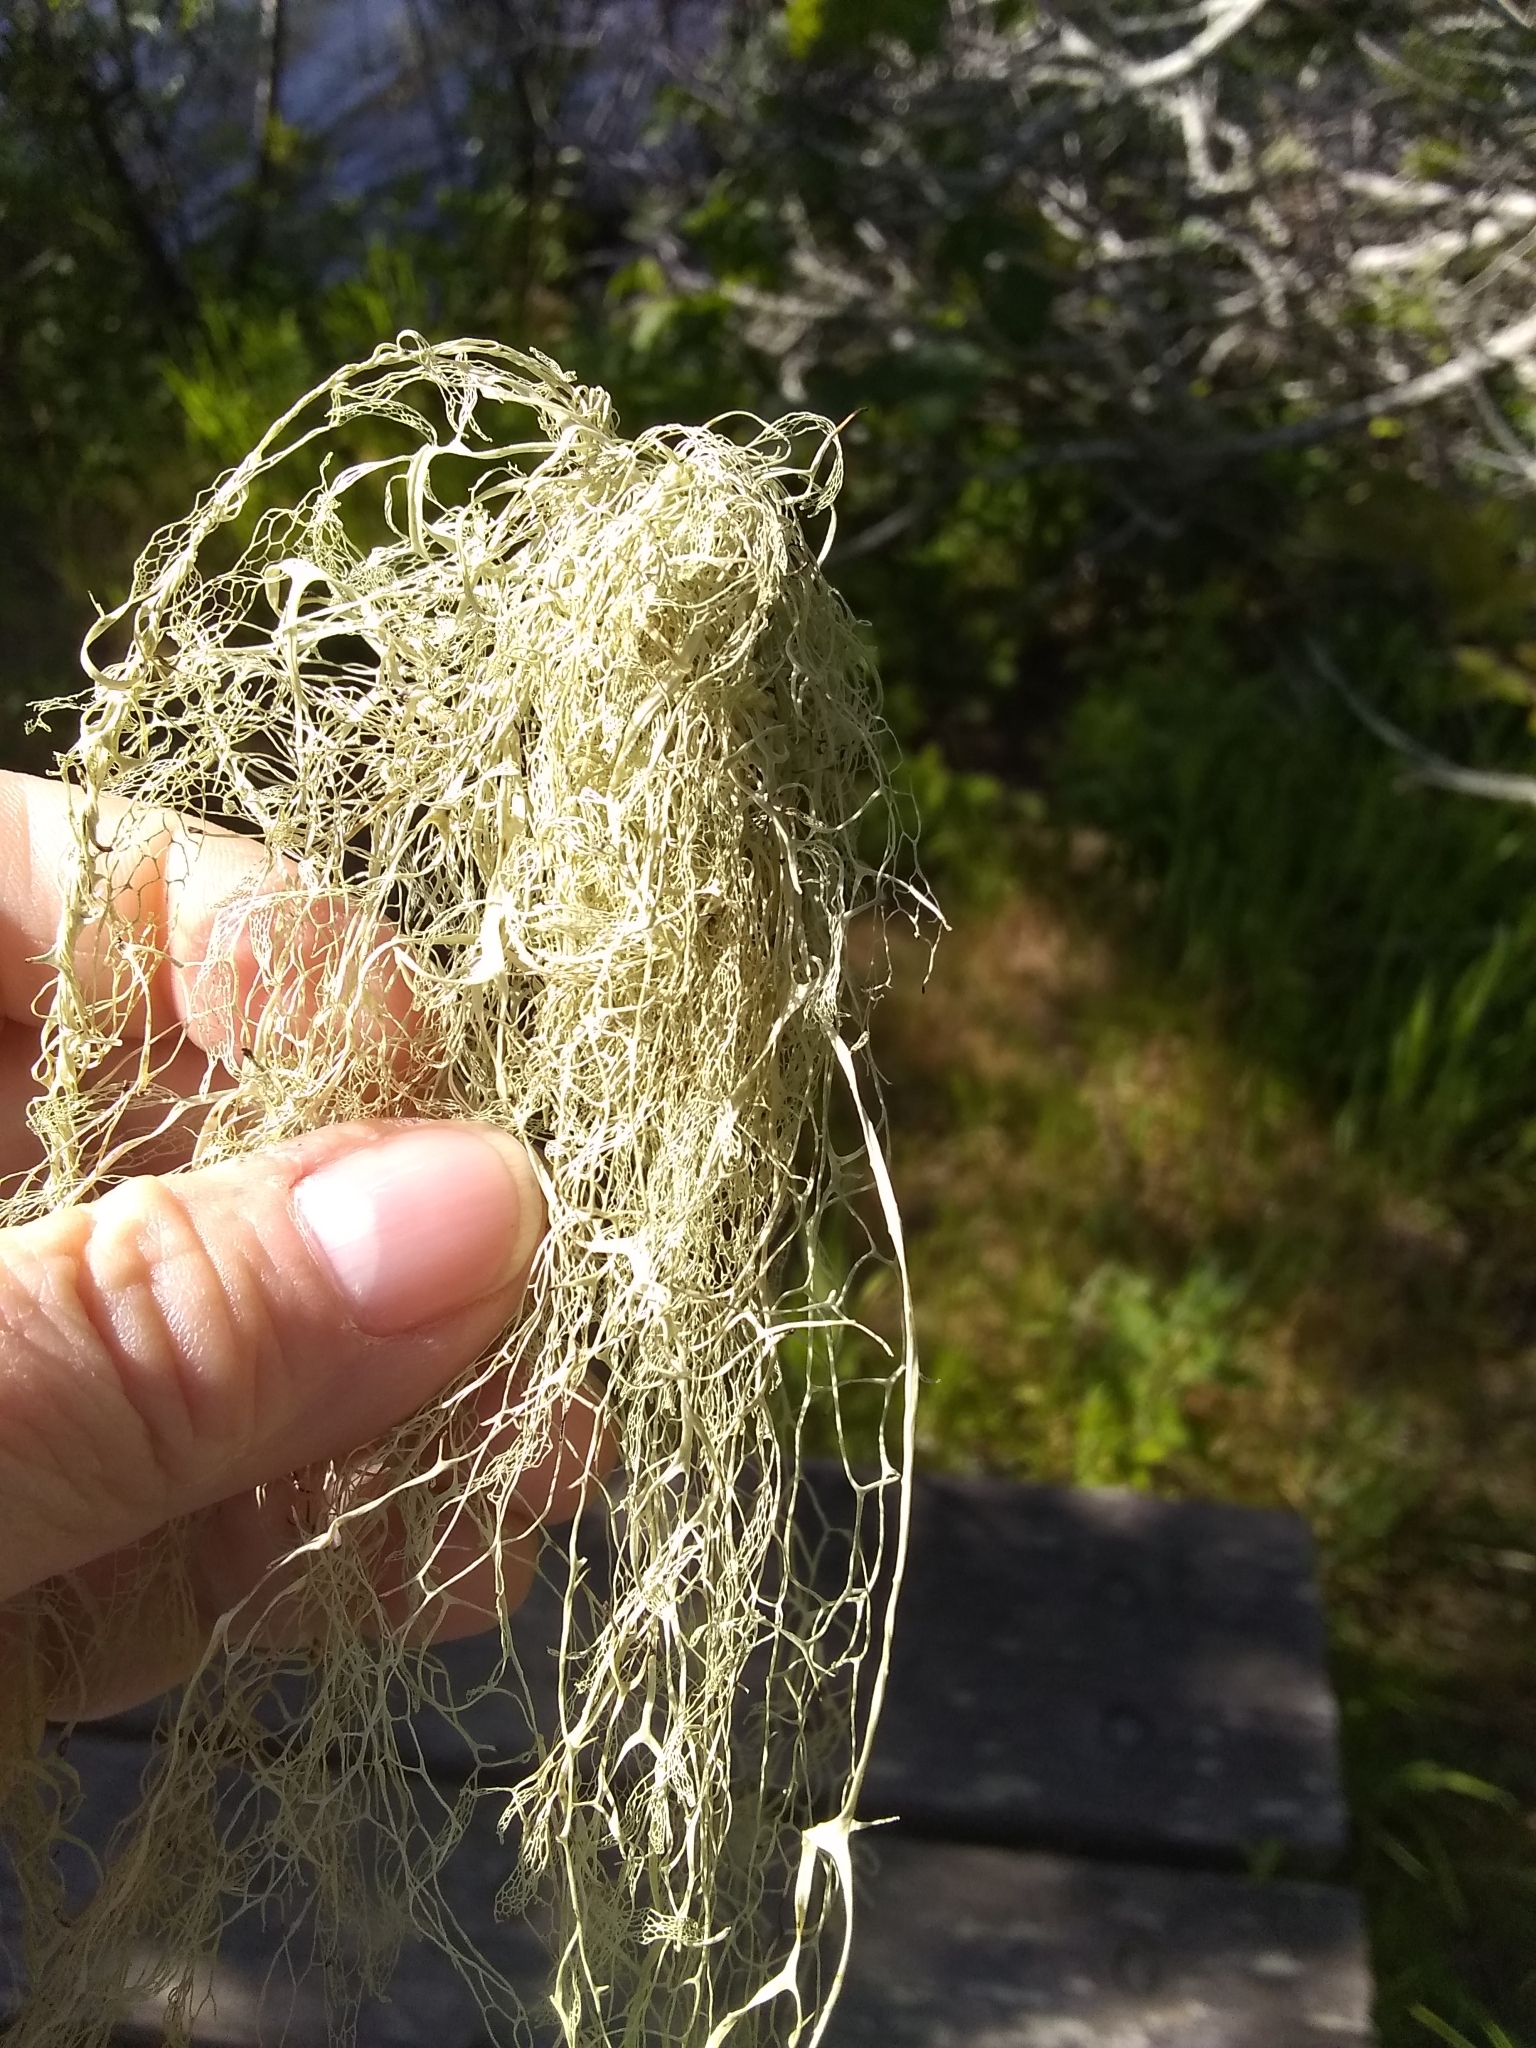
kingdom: Fungi
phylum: Ascomycota
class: Lecanoromycetes
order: Lecanorales
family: Ramalinaceae
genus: Ramalina
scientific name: Ramalina menziesii
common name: Lace lichen
